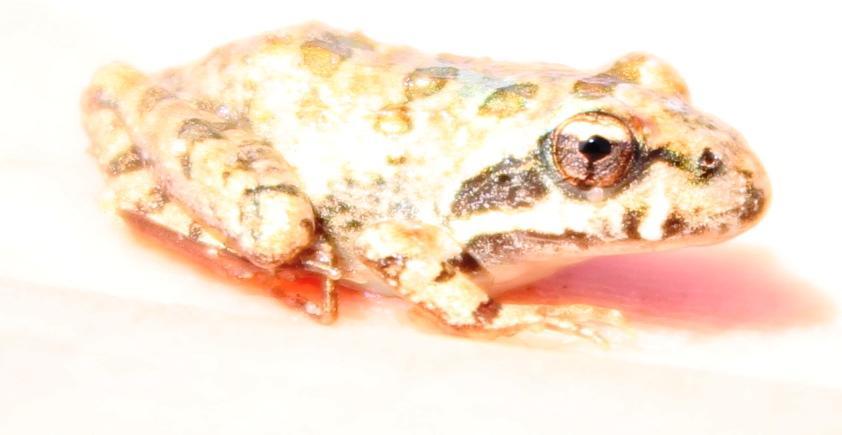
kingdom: Animalia
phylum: Chordata
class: Amphibia
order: Anura
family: Pyxicephalidae
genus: Strongylopus
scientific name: Strongylopus grayii
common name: Gray's stream frog
